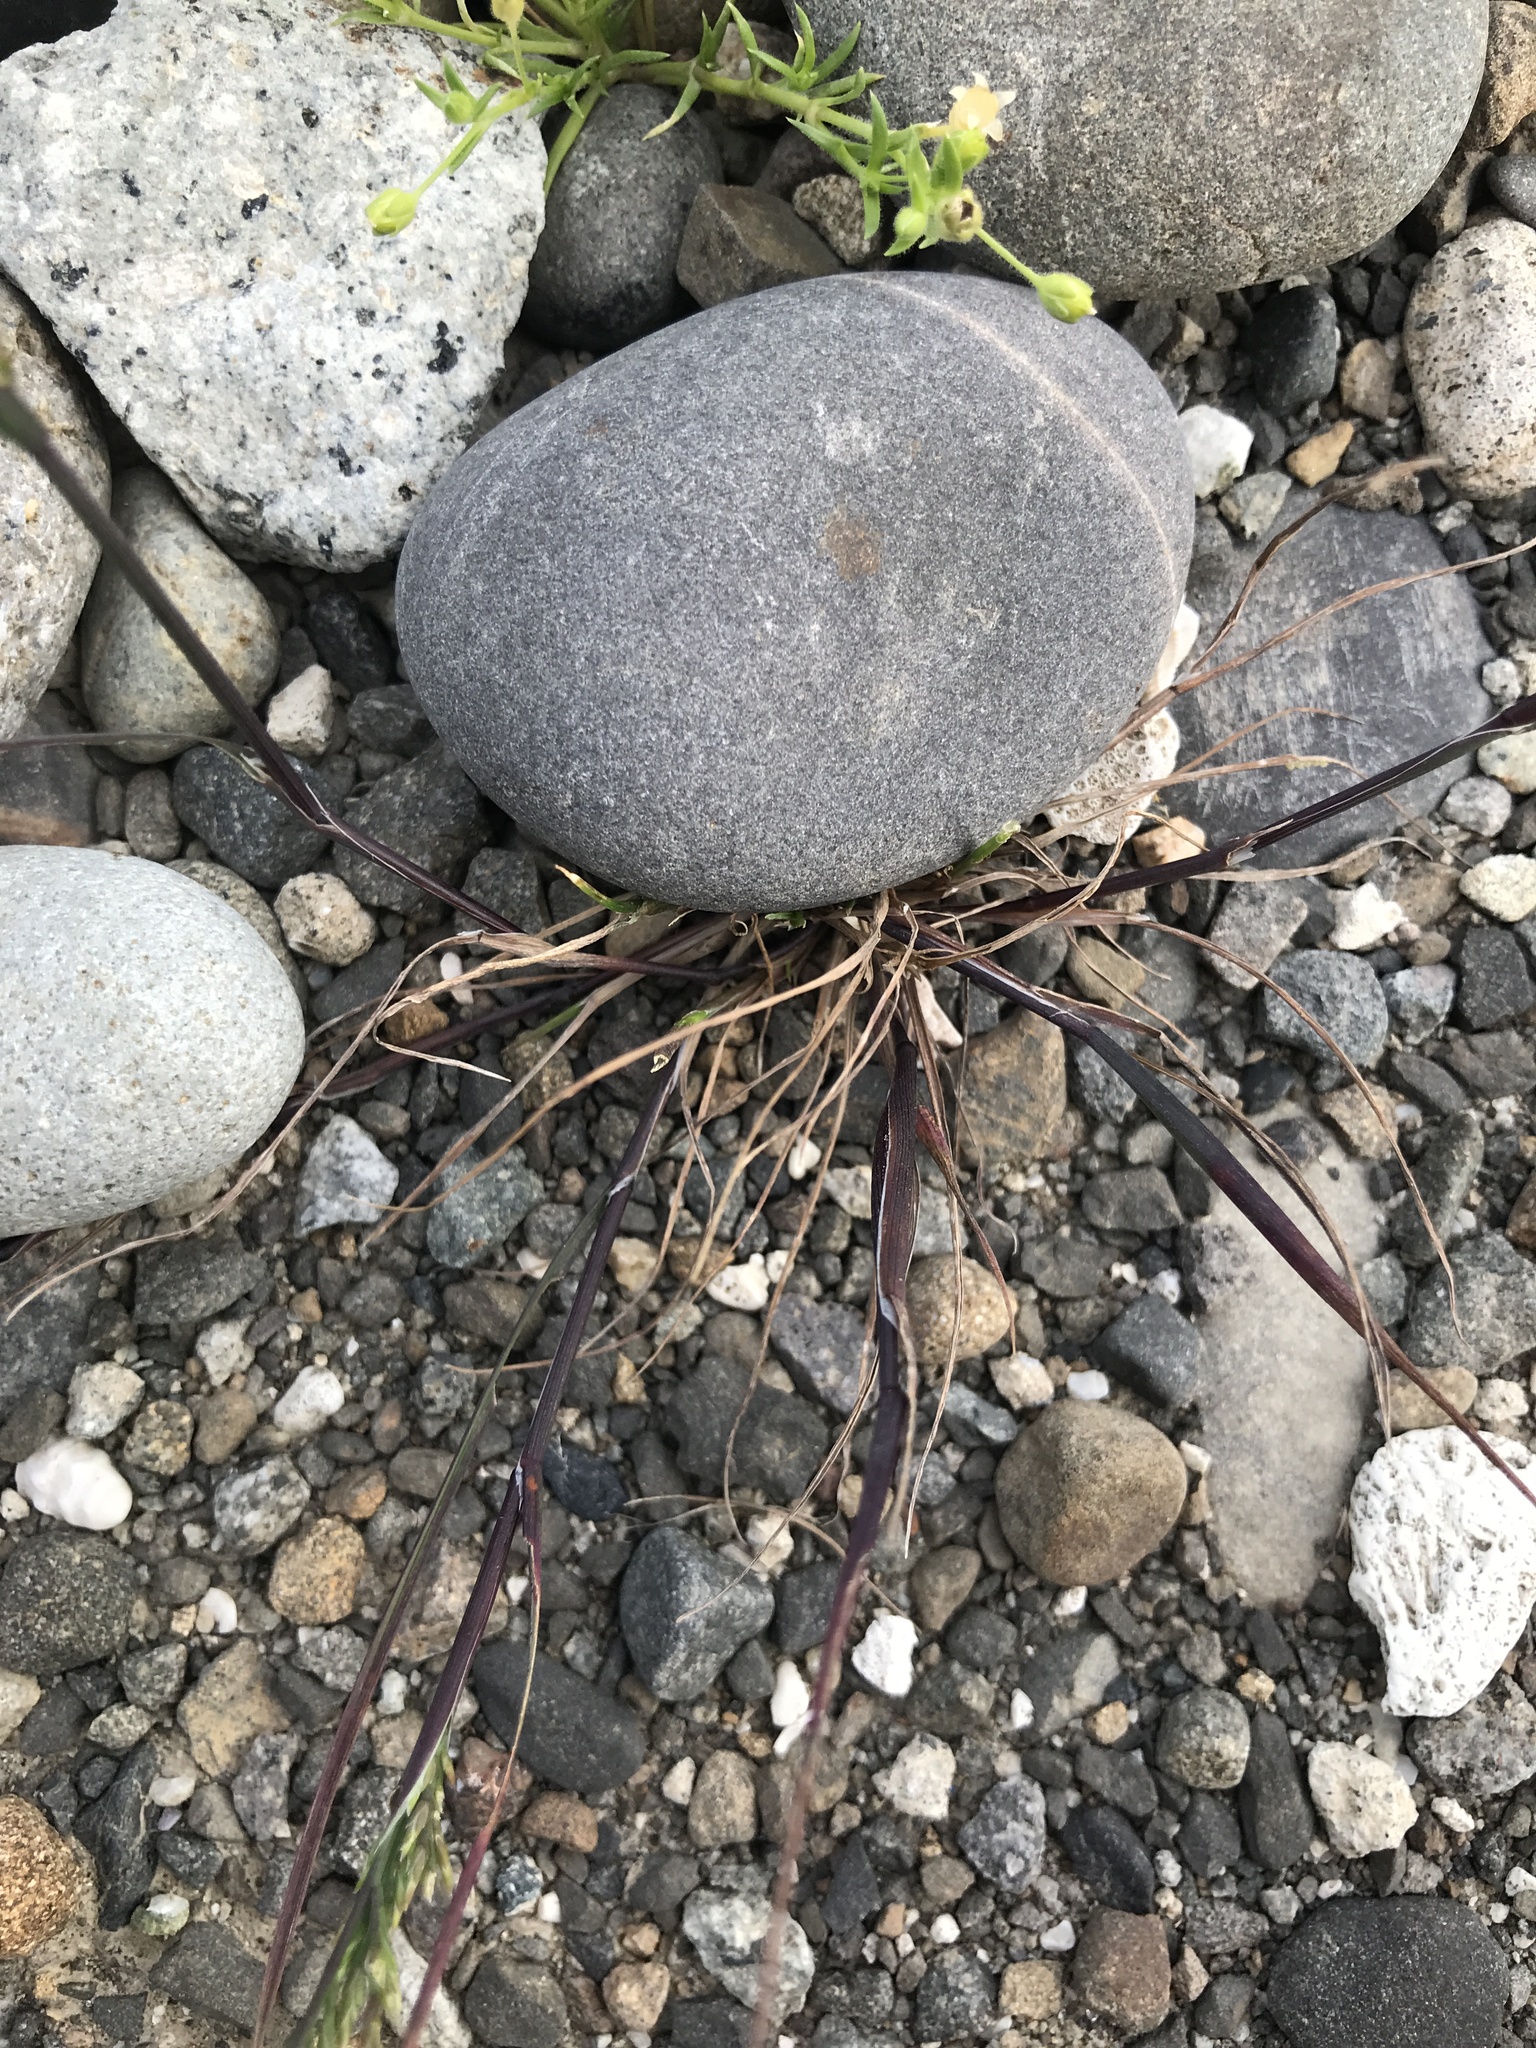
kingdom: Plantae
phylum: Tracheophyta
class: Liliopsida
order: Poales
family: Poaceae
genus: Catapodium
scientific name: Catapodium rigidum
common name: Fern-grass
